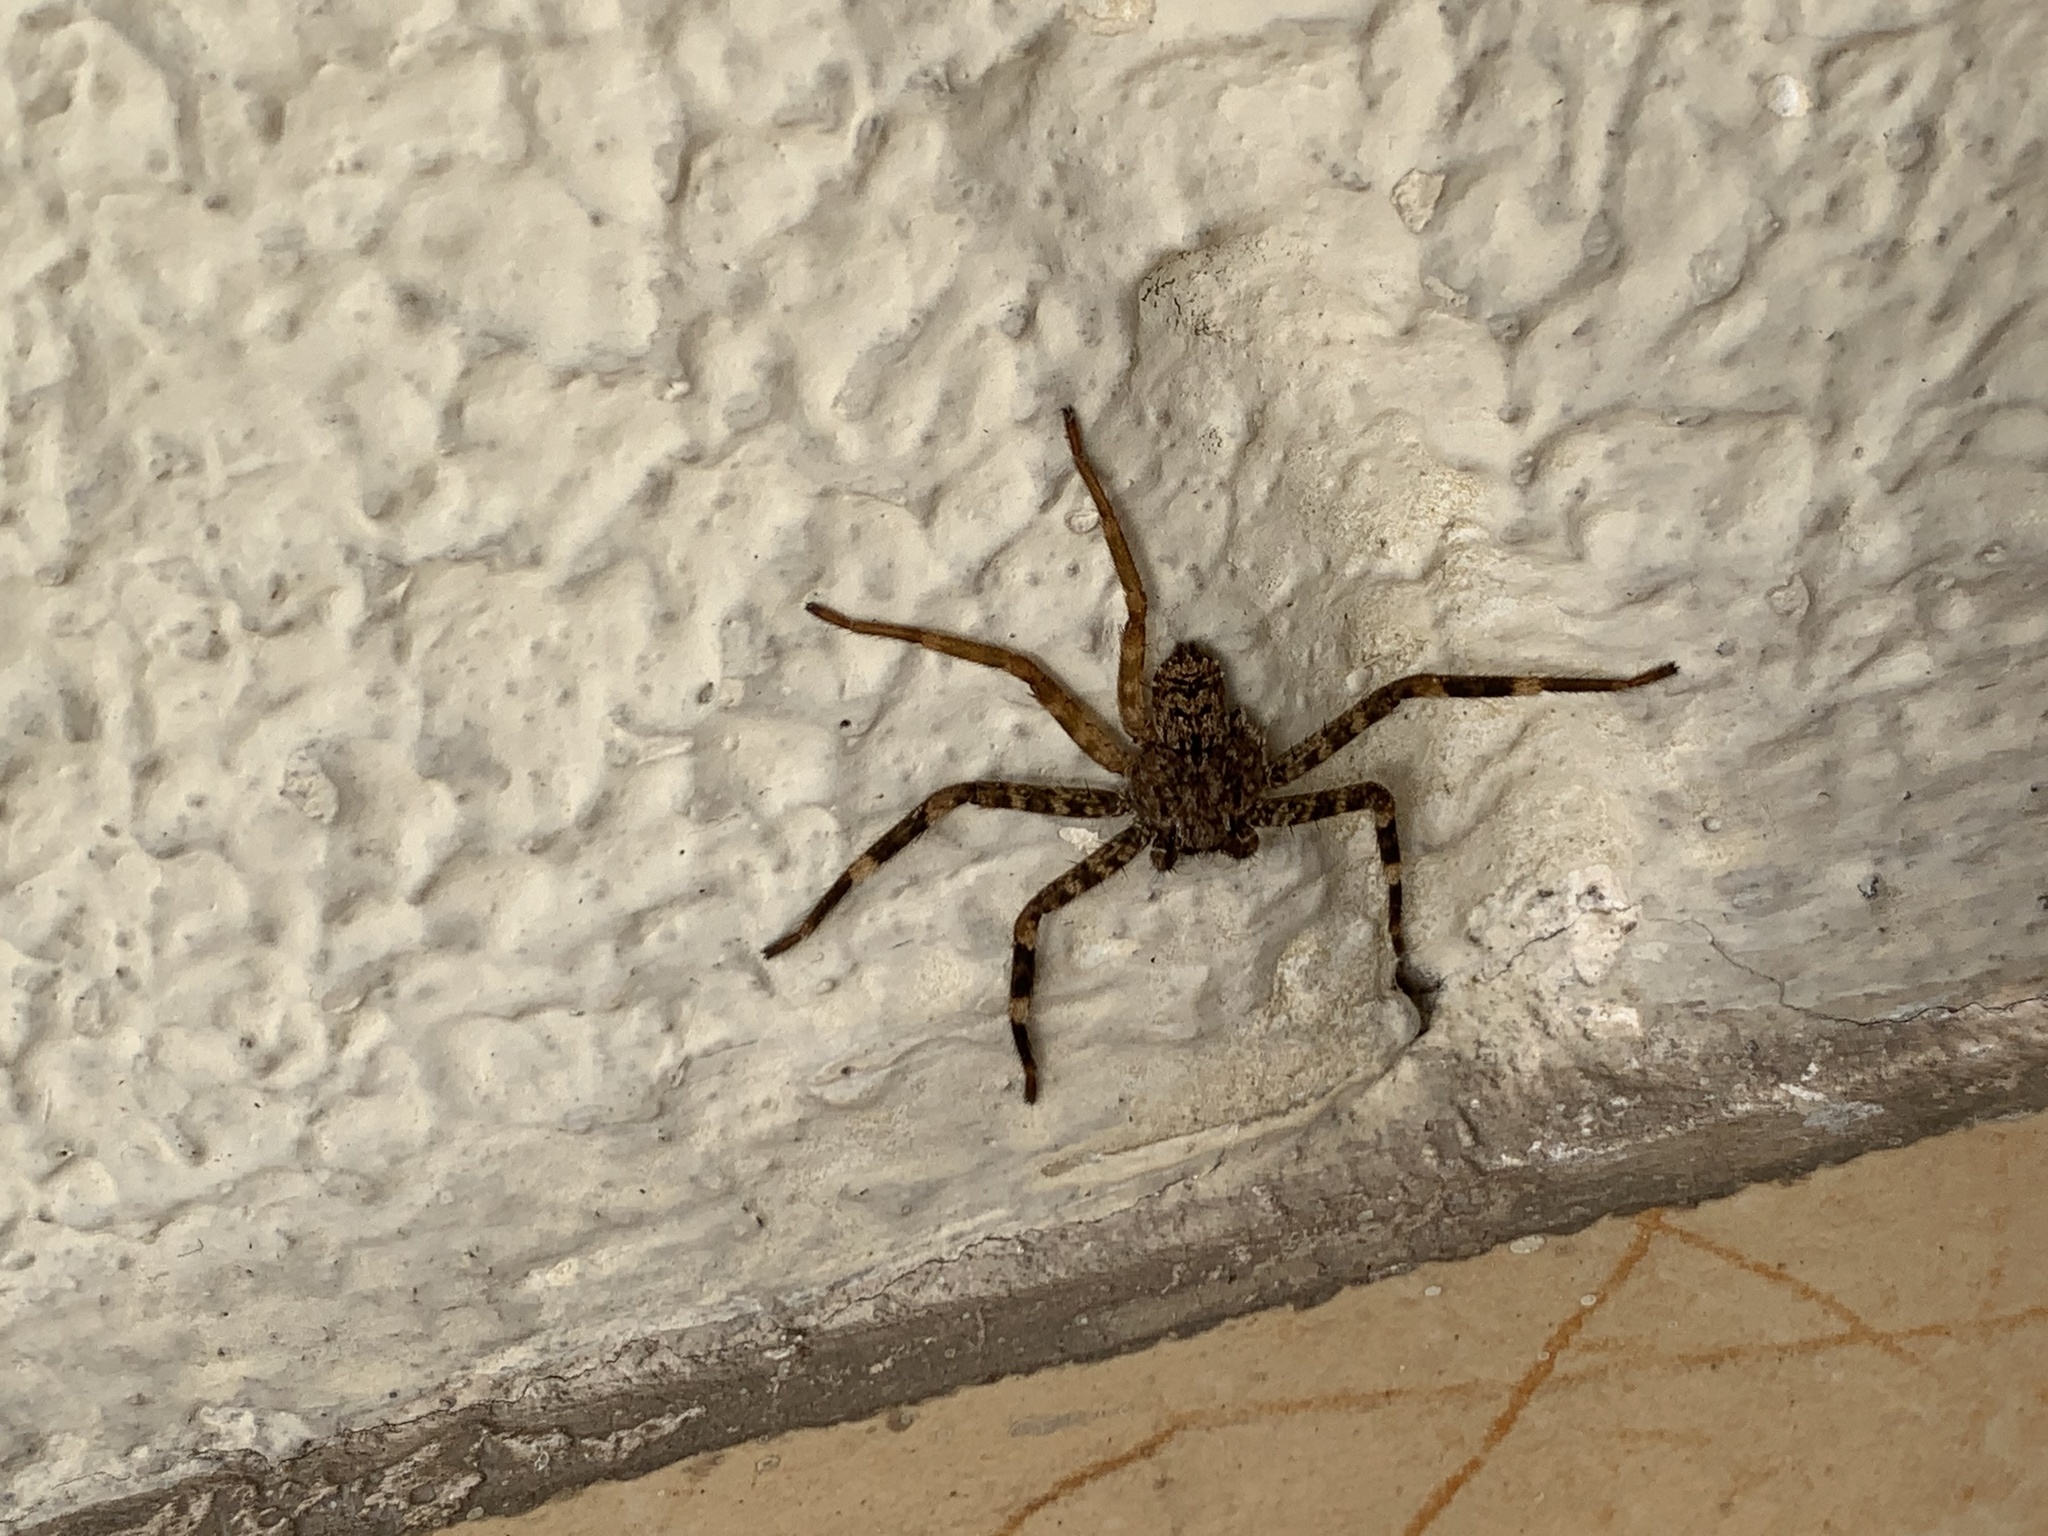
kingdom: Animalia
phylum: Arthropoda
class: Arachnida
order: Araneae
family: Selenopidae
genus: Selenops
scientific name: Selenops mexicanus
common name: Wall crab spiders
